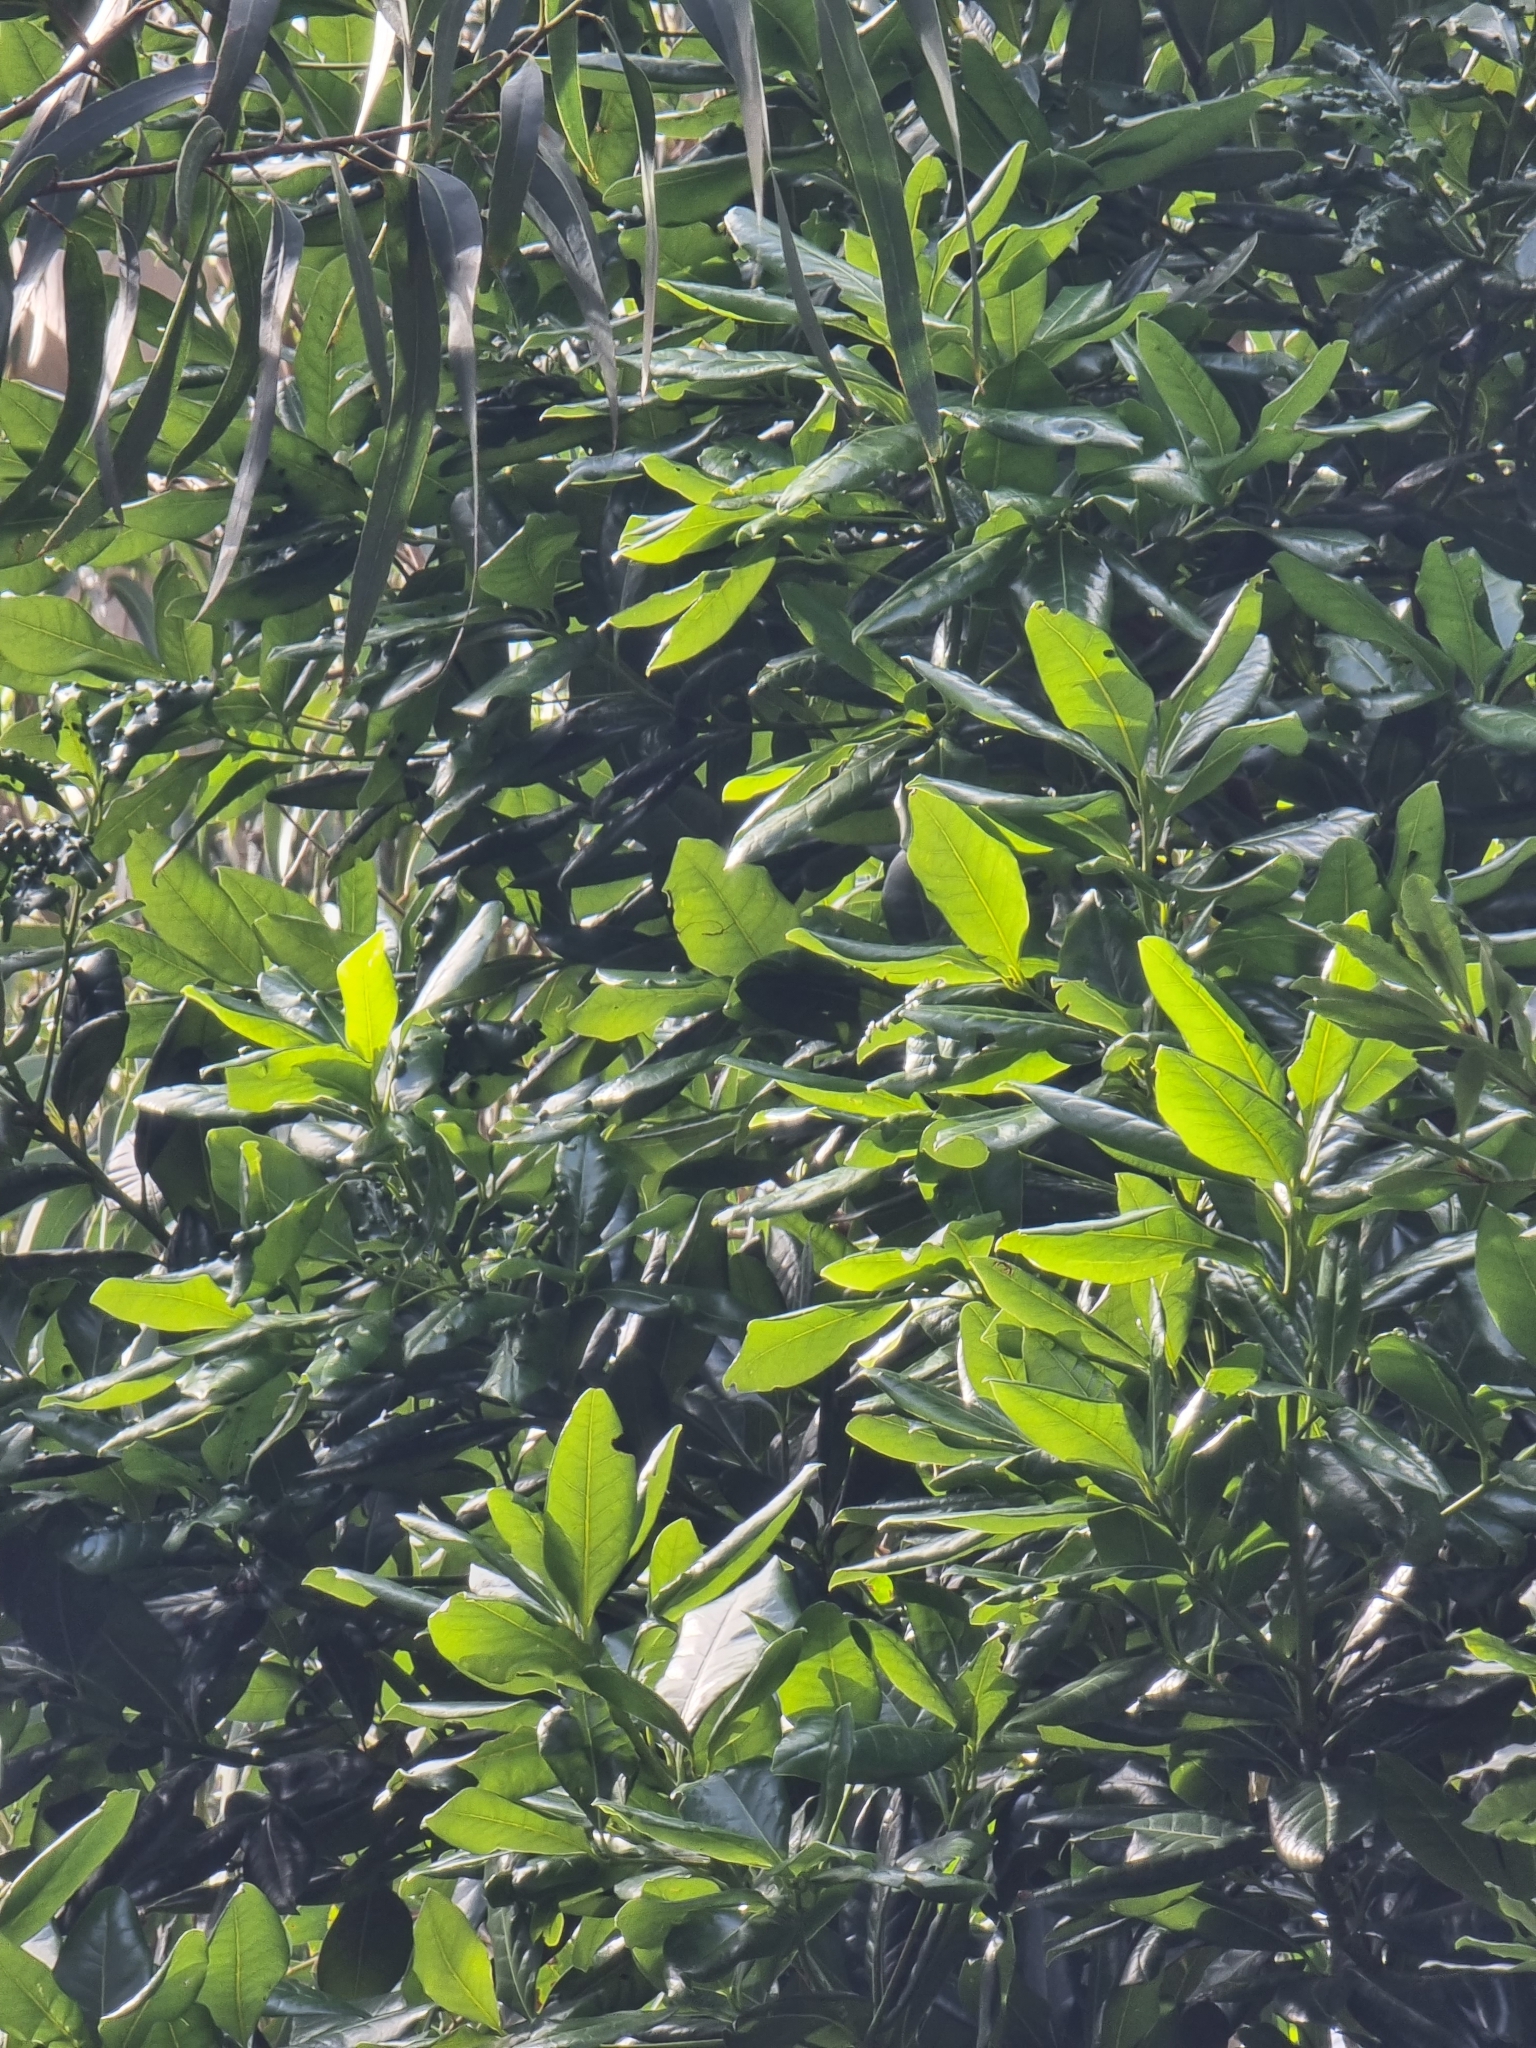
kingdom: Plantae
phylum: Tracheophyta
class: Magnoliopsida
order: Laurales
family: Lauraceae
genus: Apollonias
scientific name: Apollonias barbujana
